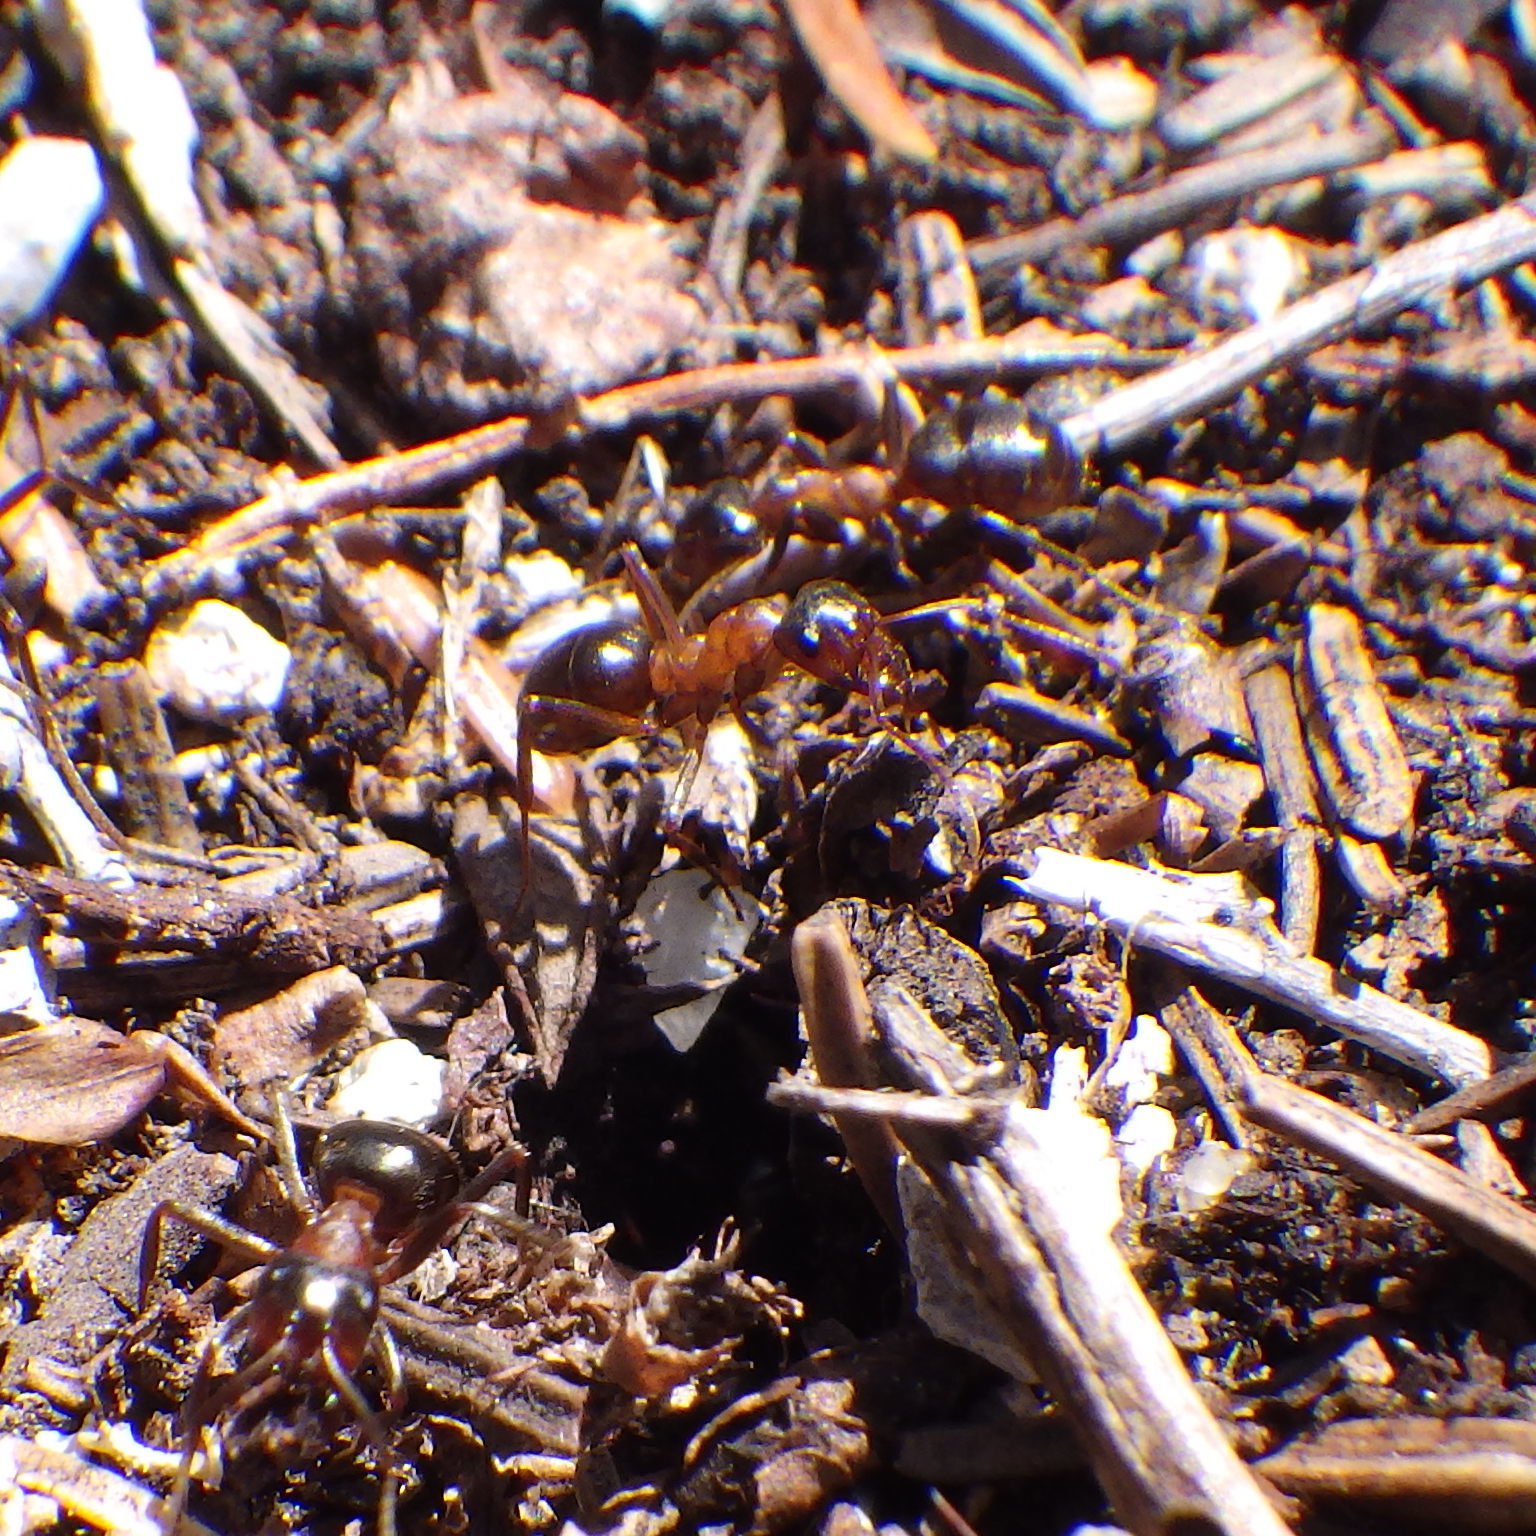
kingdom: Animalia
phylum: Arthropoda
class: Insecta
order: Hymenoptera
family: Formicidae
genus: Formica
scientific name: Formica ulkei
